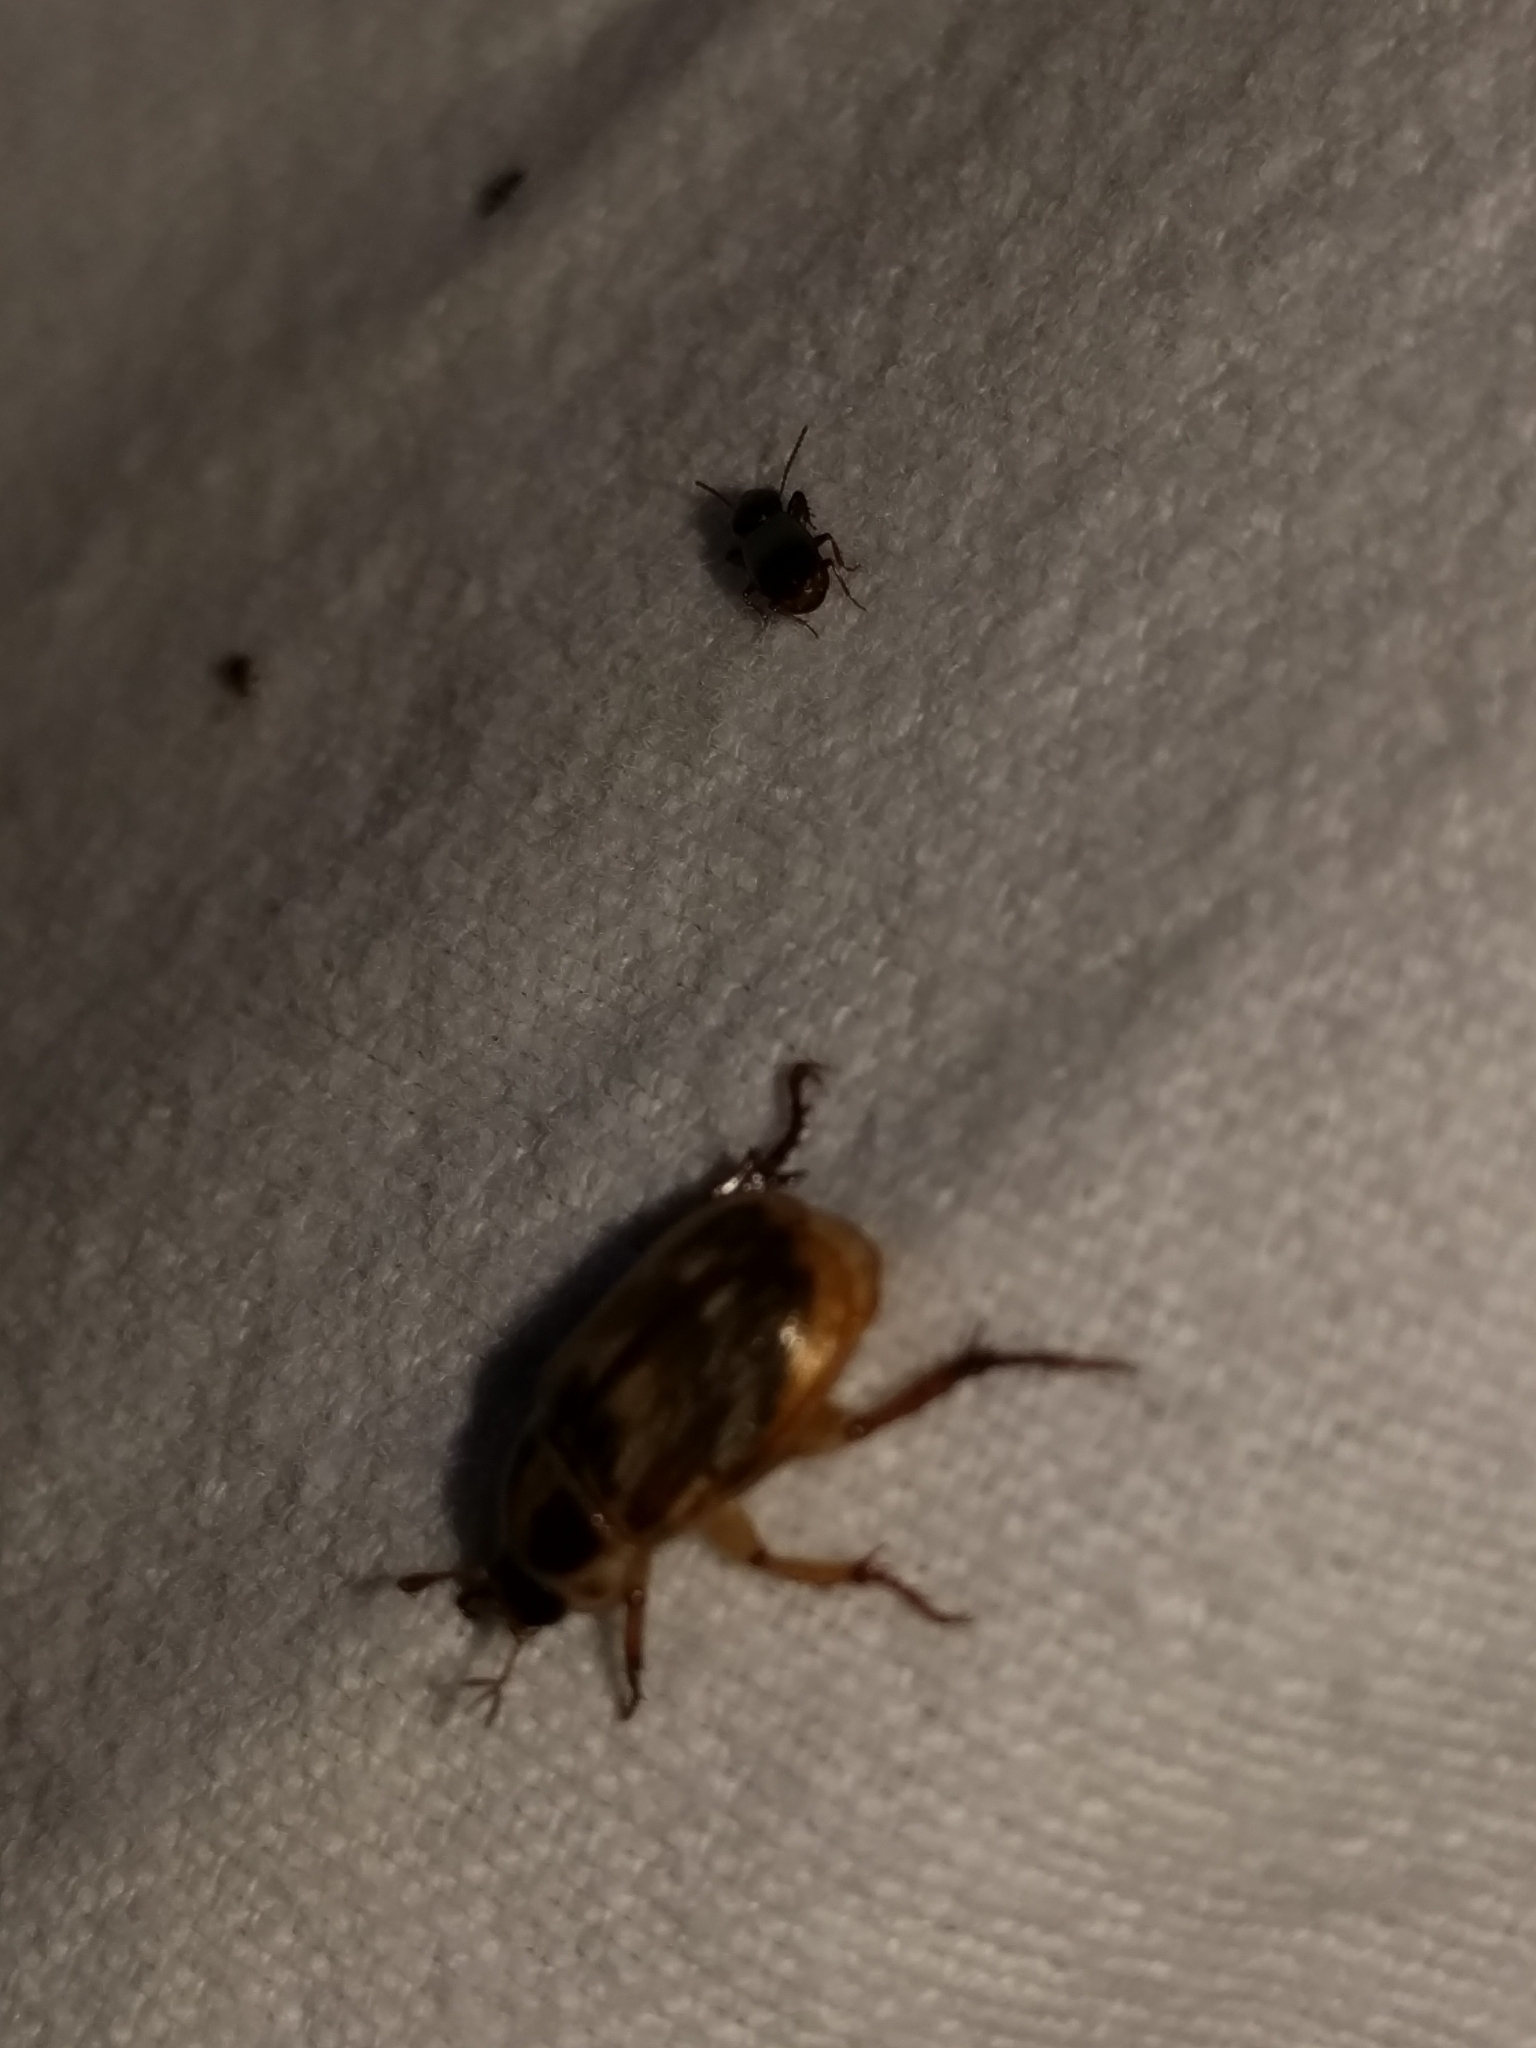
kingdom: Animalia
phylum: Arthropoda
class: Insecta
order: Coleoptera
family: Scarabaeidae
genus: Exomala
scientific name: Exomala orientalis
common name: Oriental beetle
